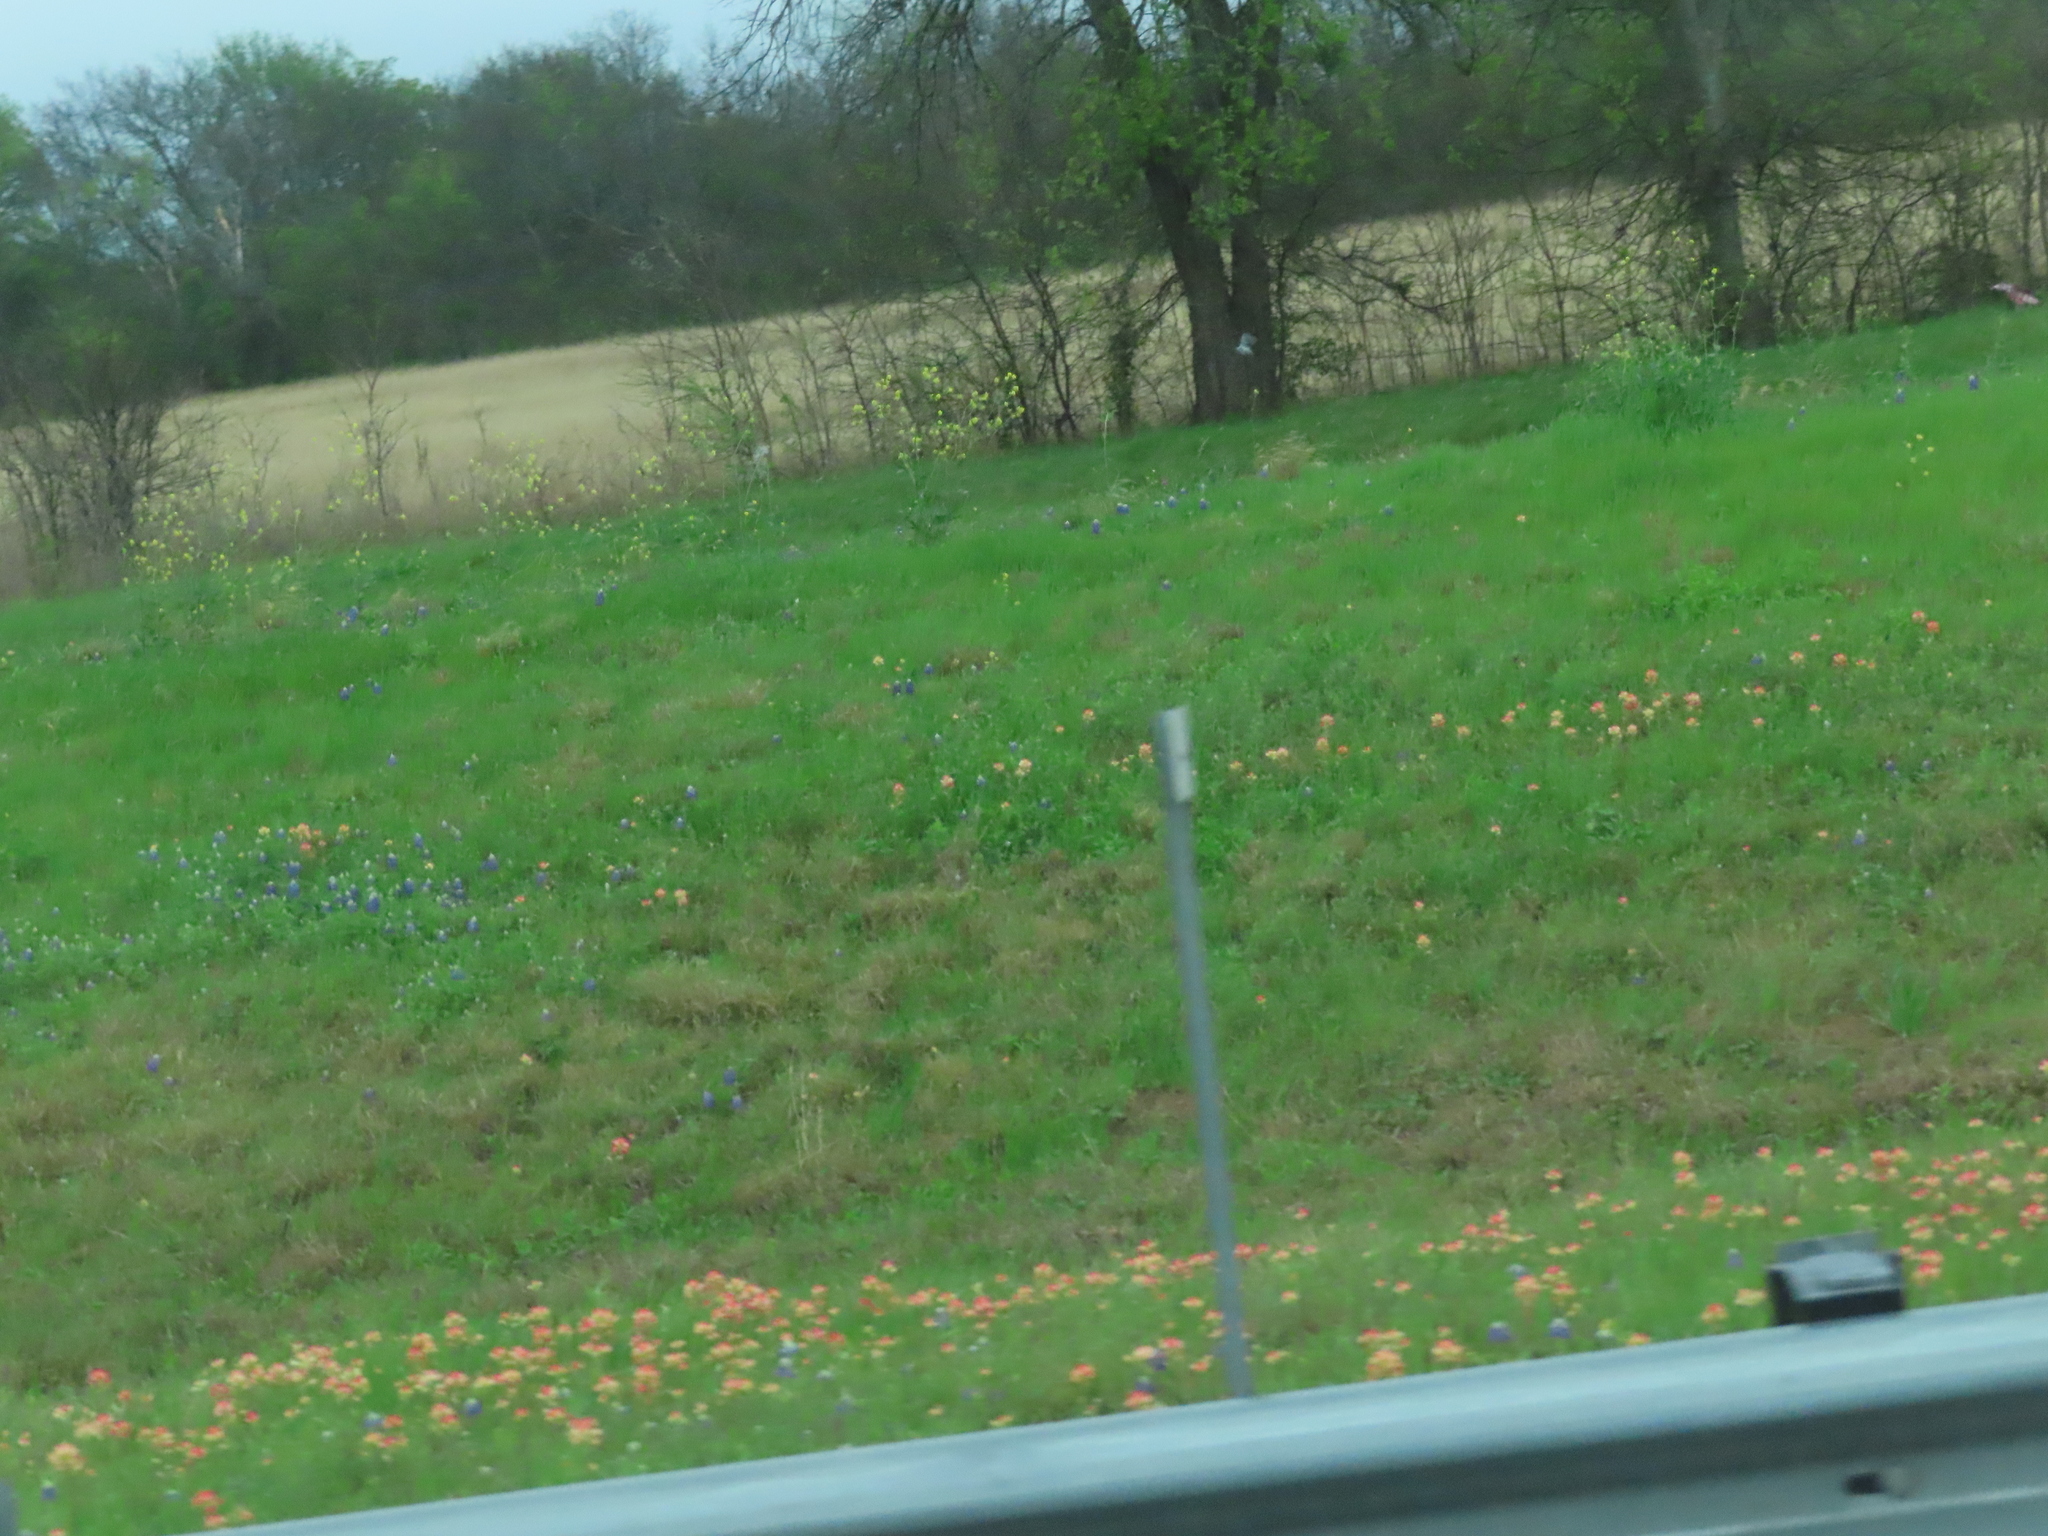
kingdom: Plantae
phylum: Tracheophyta
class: Magnoliopsida
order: Lamiales
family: Orobanchaceae
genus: Castilleja
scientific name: Castilleja indivisa
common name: Texas paintbrush
